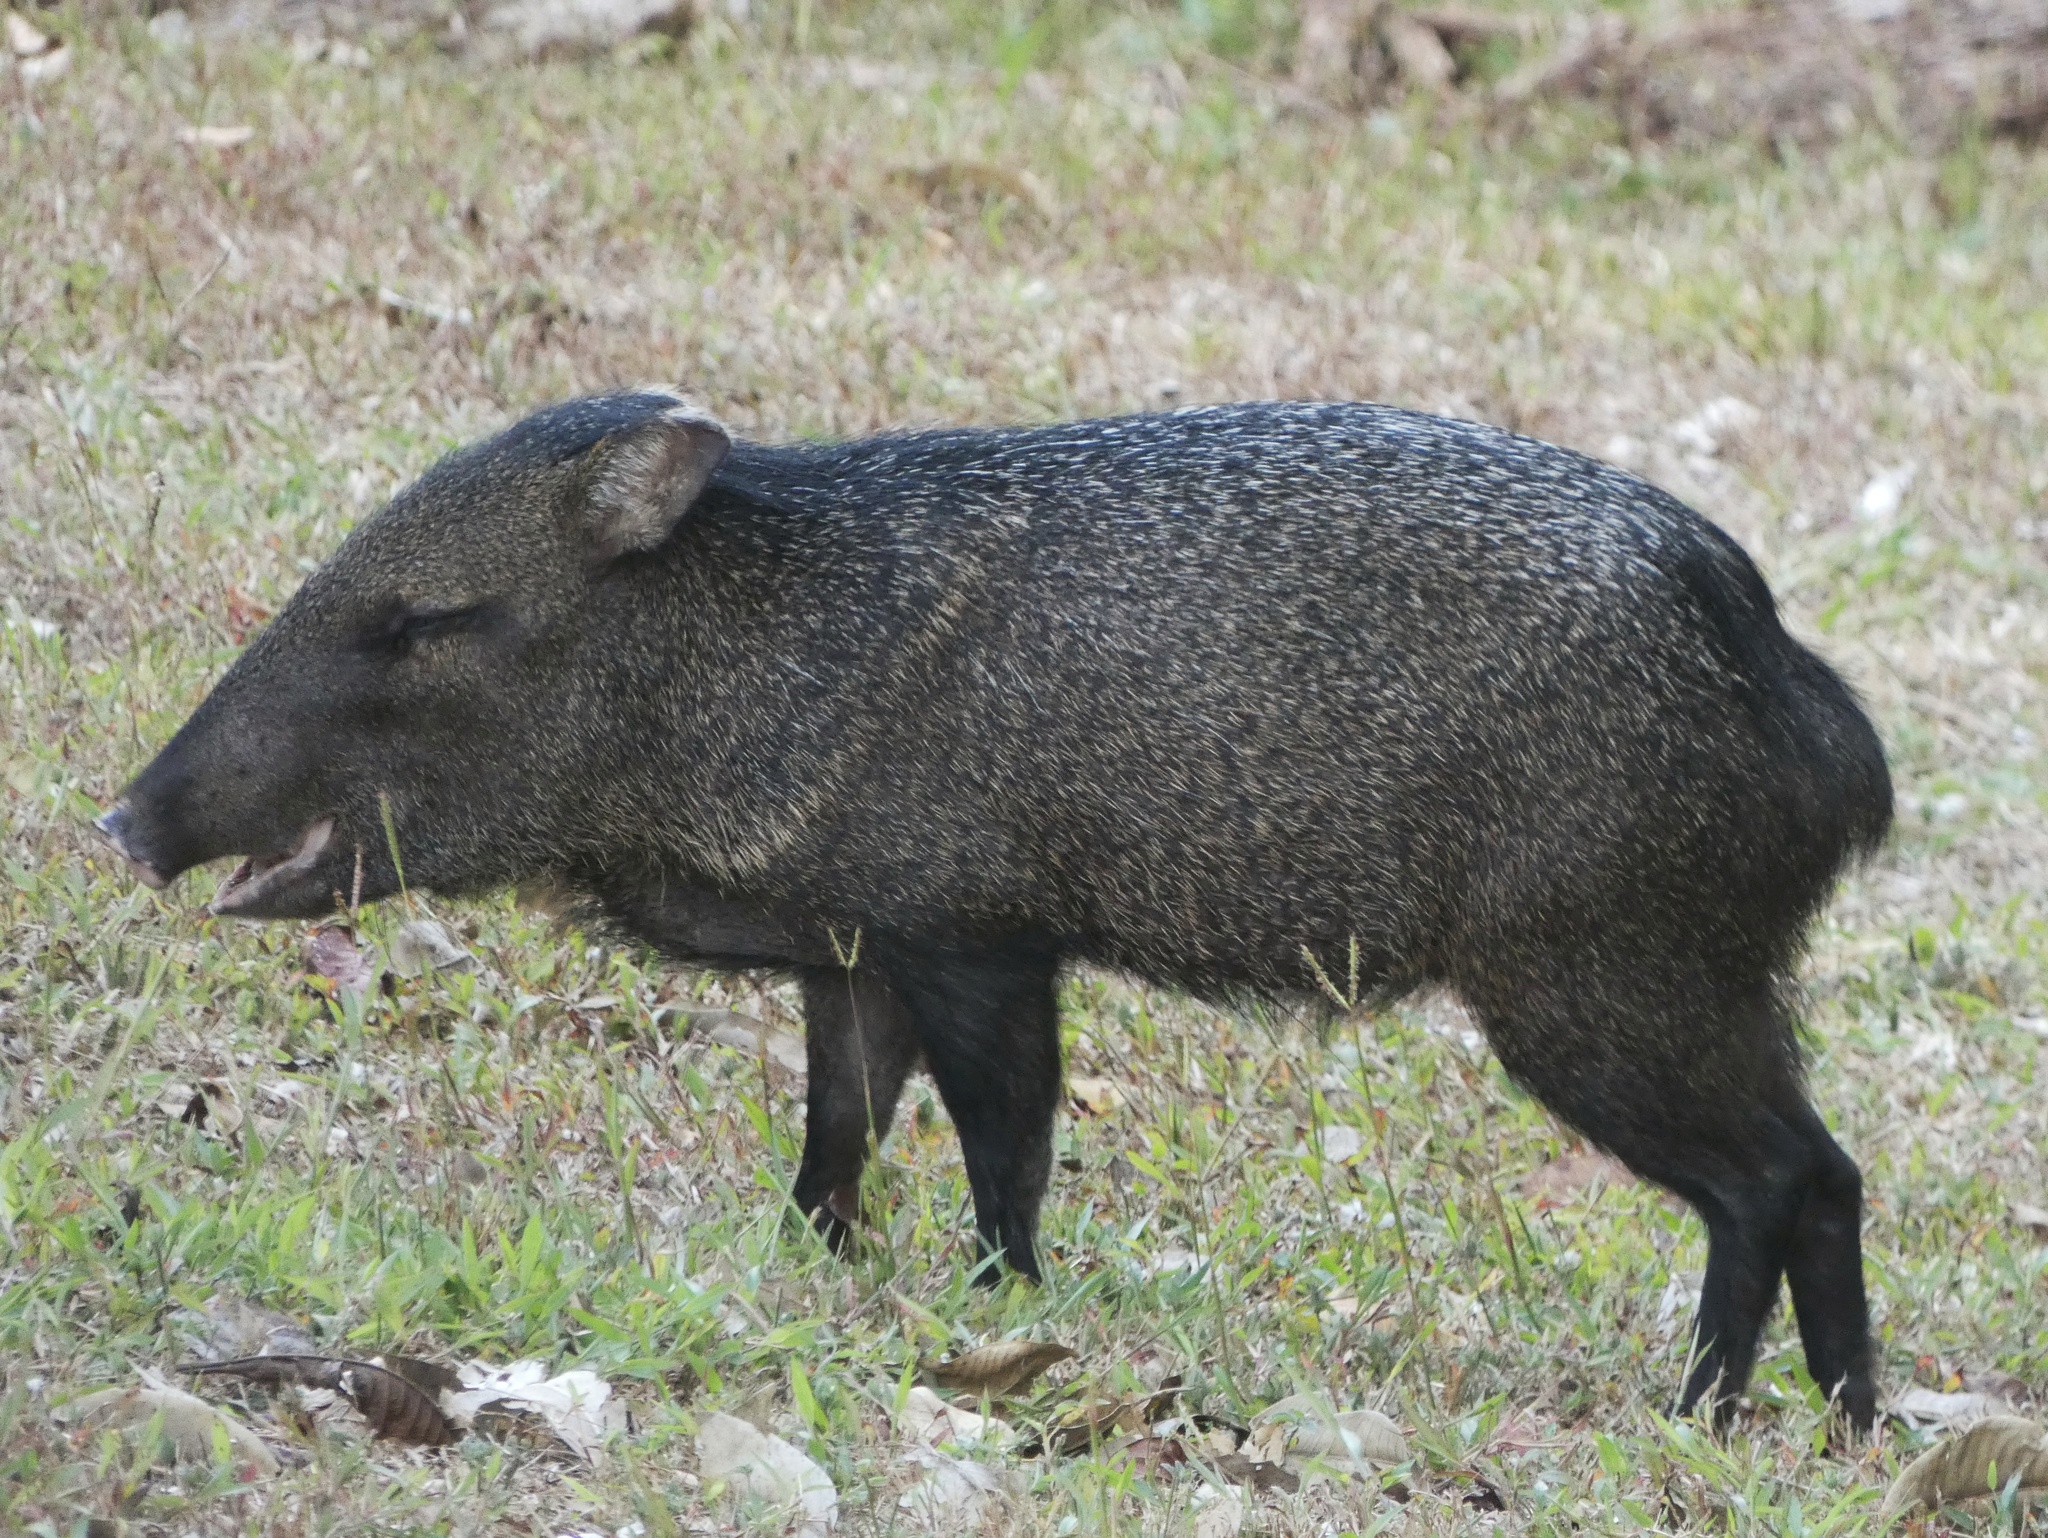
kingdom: Animalia
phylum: Chordata
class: Mammalia
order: Artiodactyla
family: Tayassuidae
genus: Pecari
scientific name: Pecari tajacu
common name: Collared peccary
